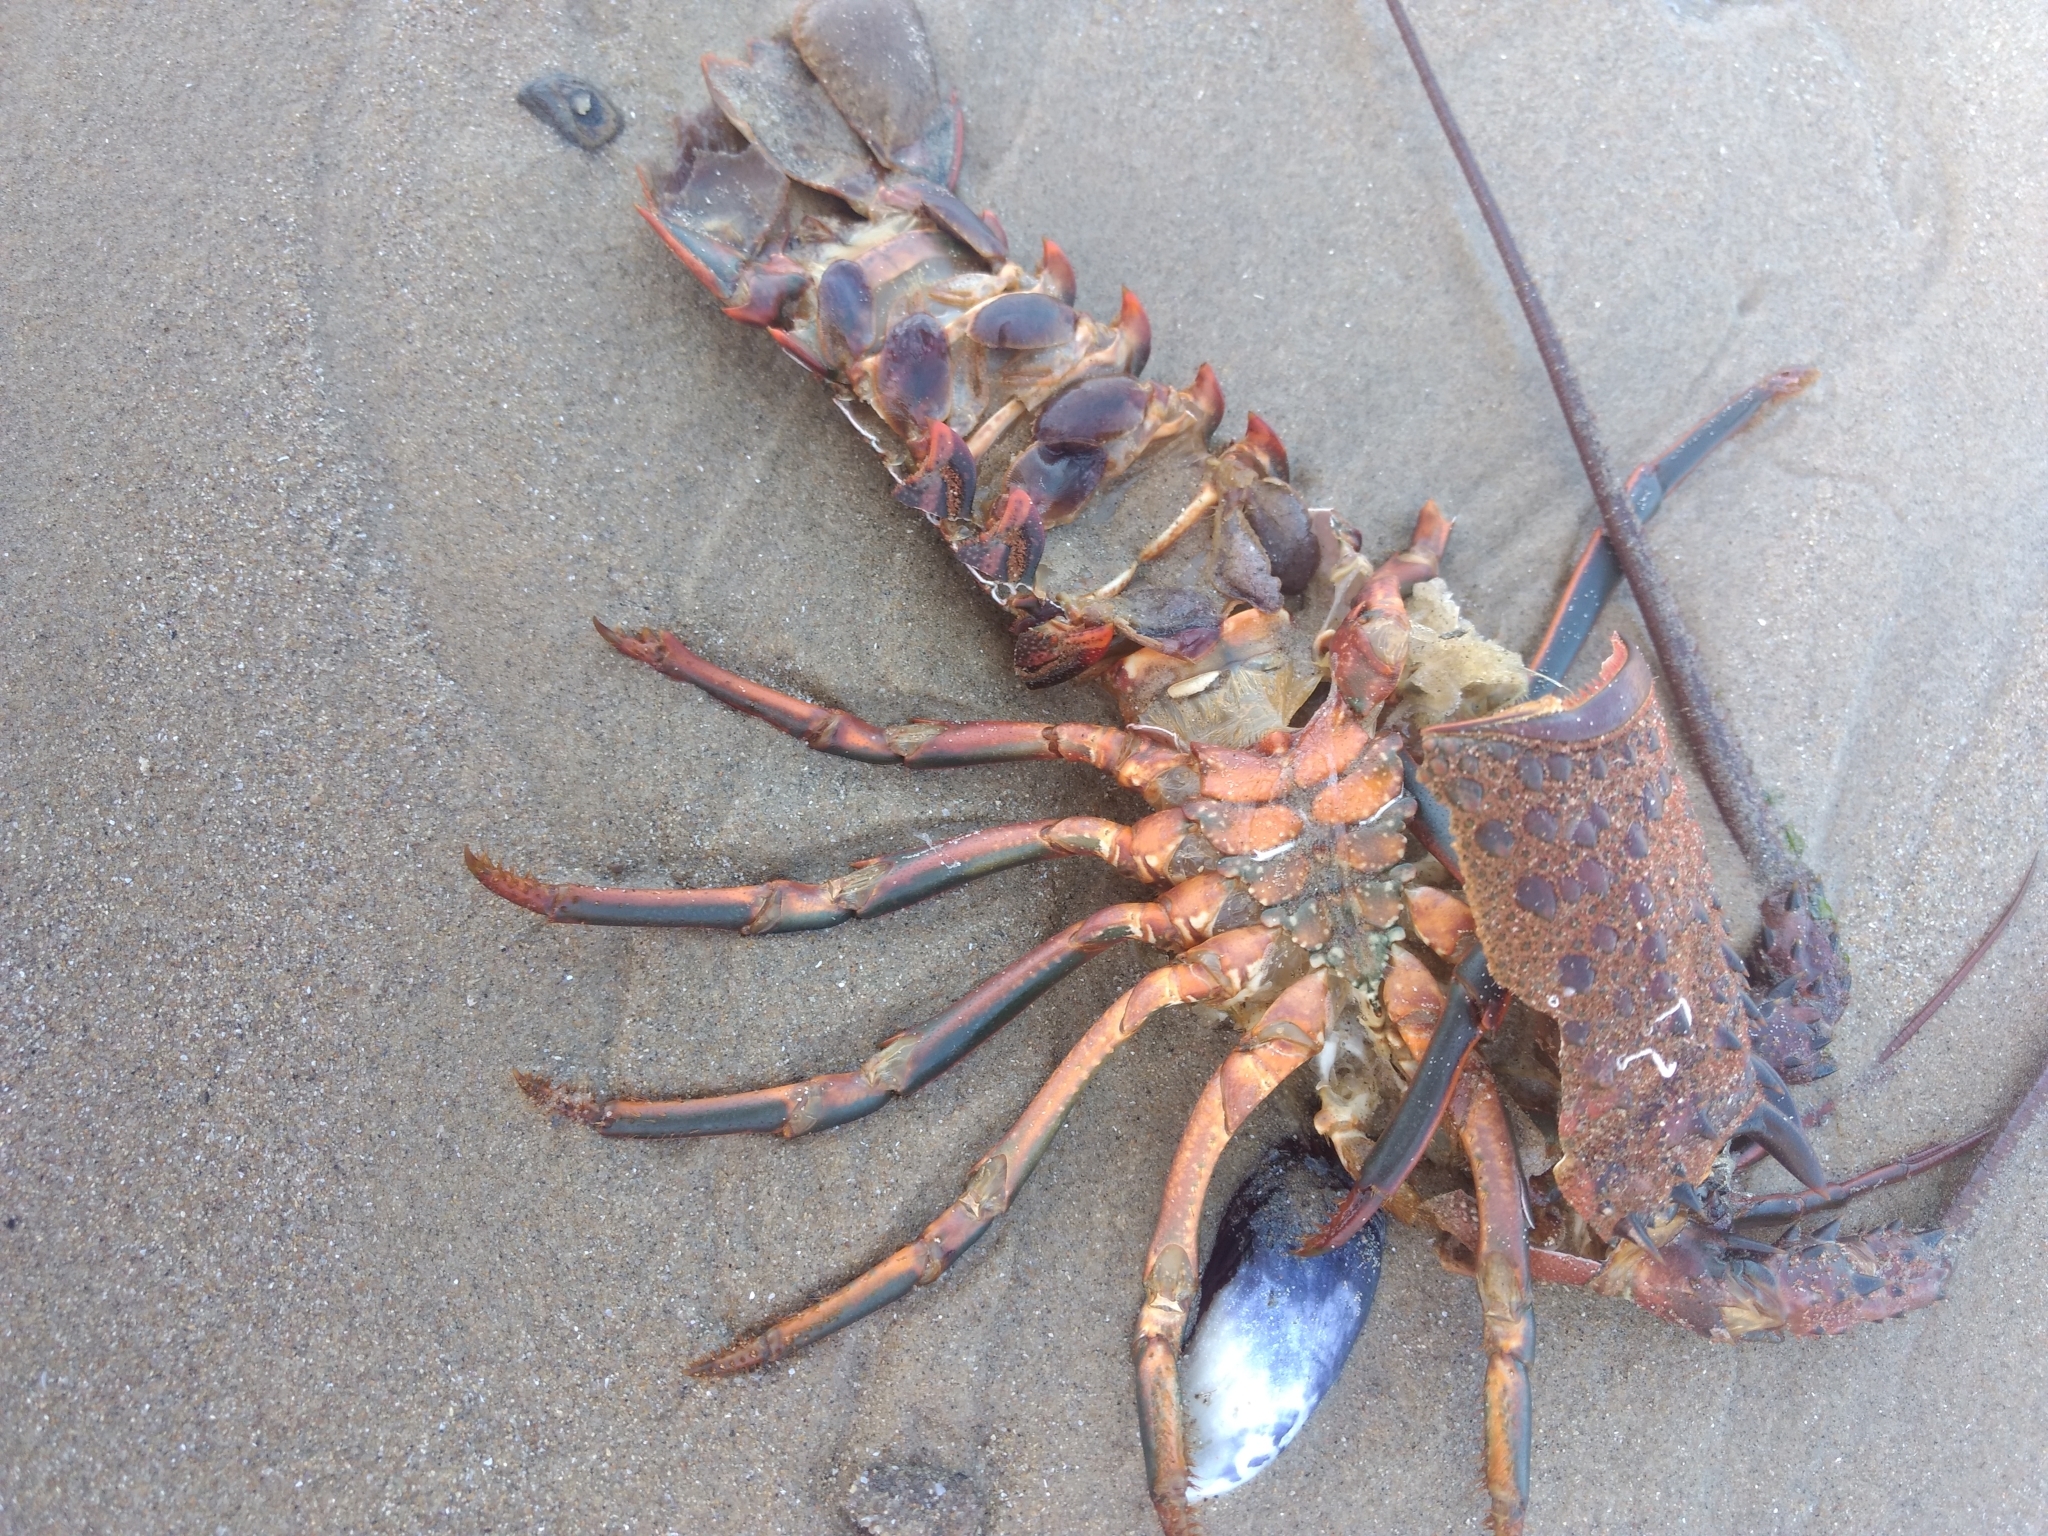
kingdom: Animalia
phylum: Arthropoda
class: Malacostraca
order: Decapoda
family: Palinuridae
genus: Panulirus
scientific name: Panulirus interruptus
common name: California spiny lobster
